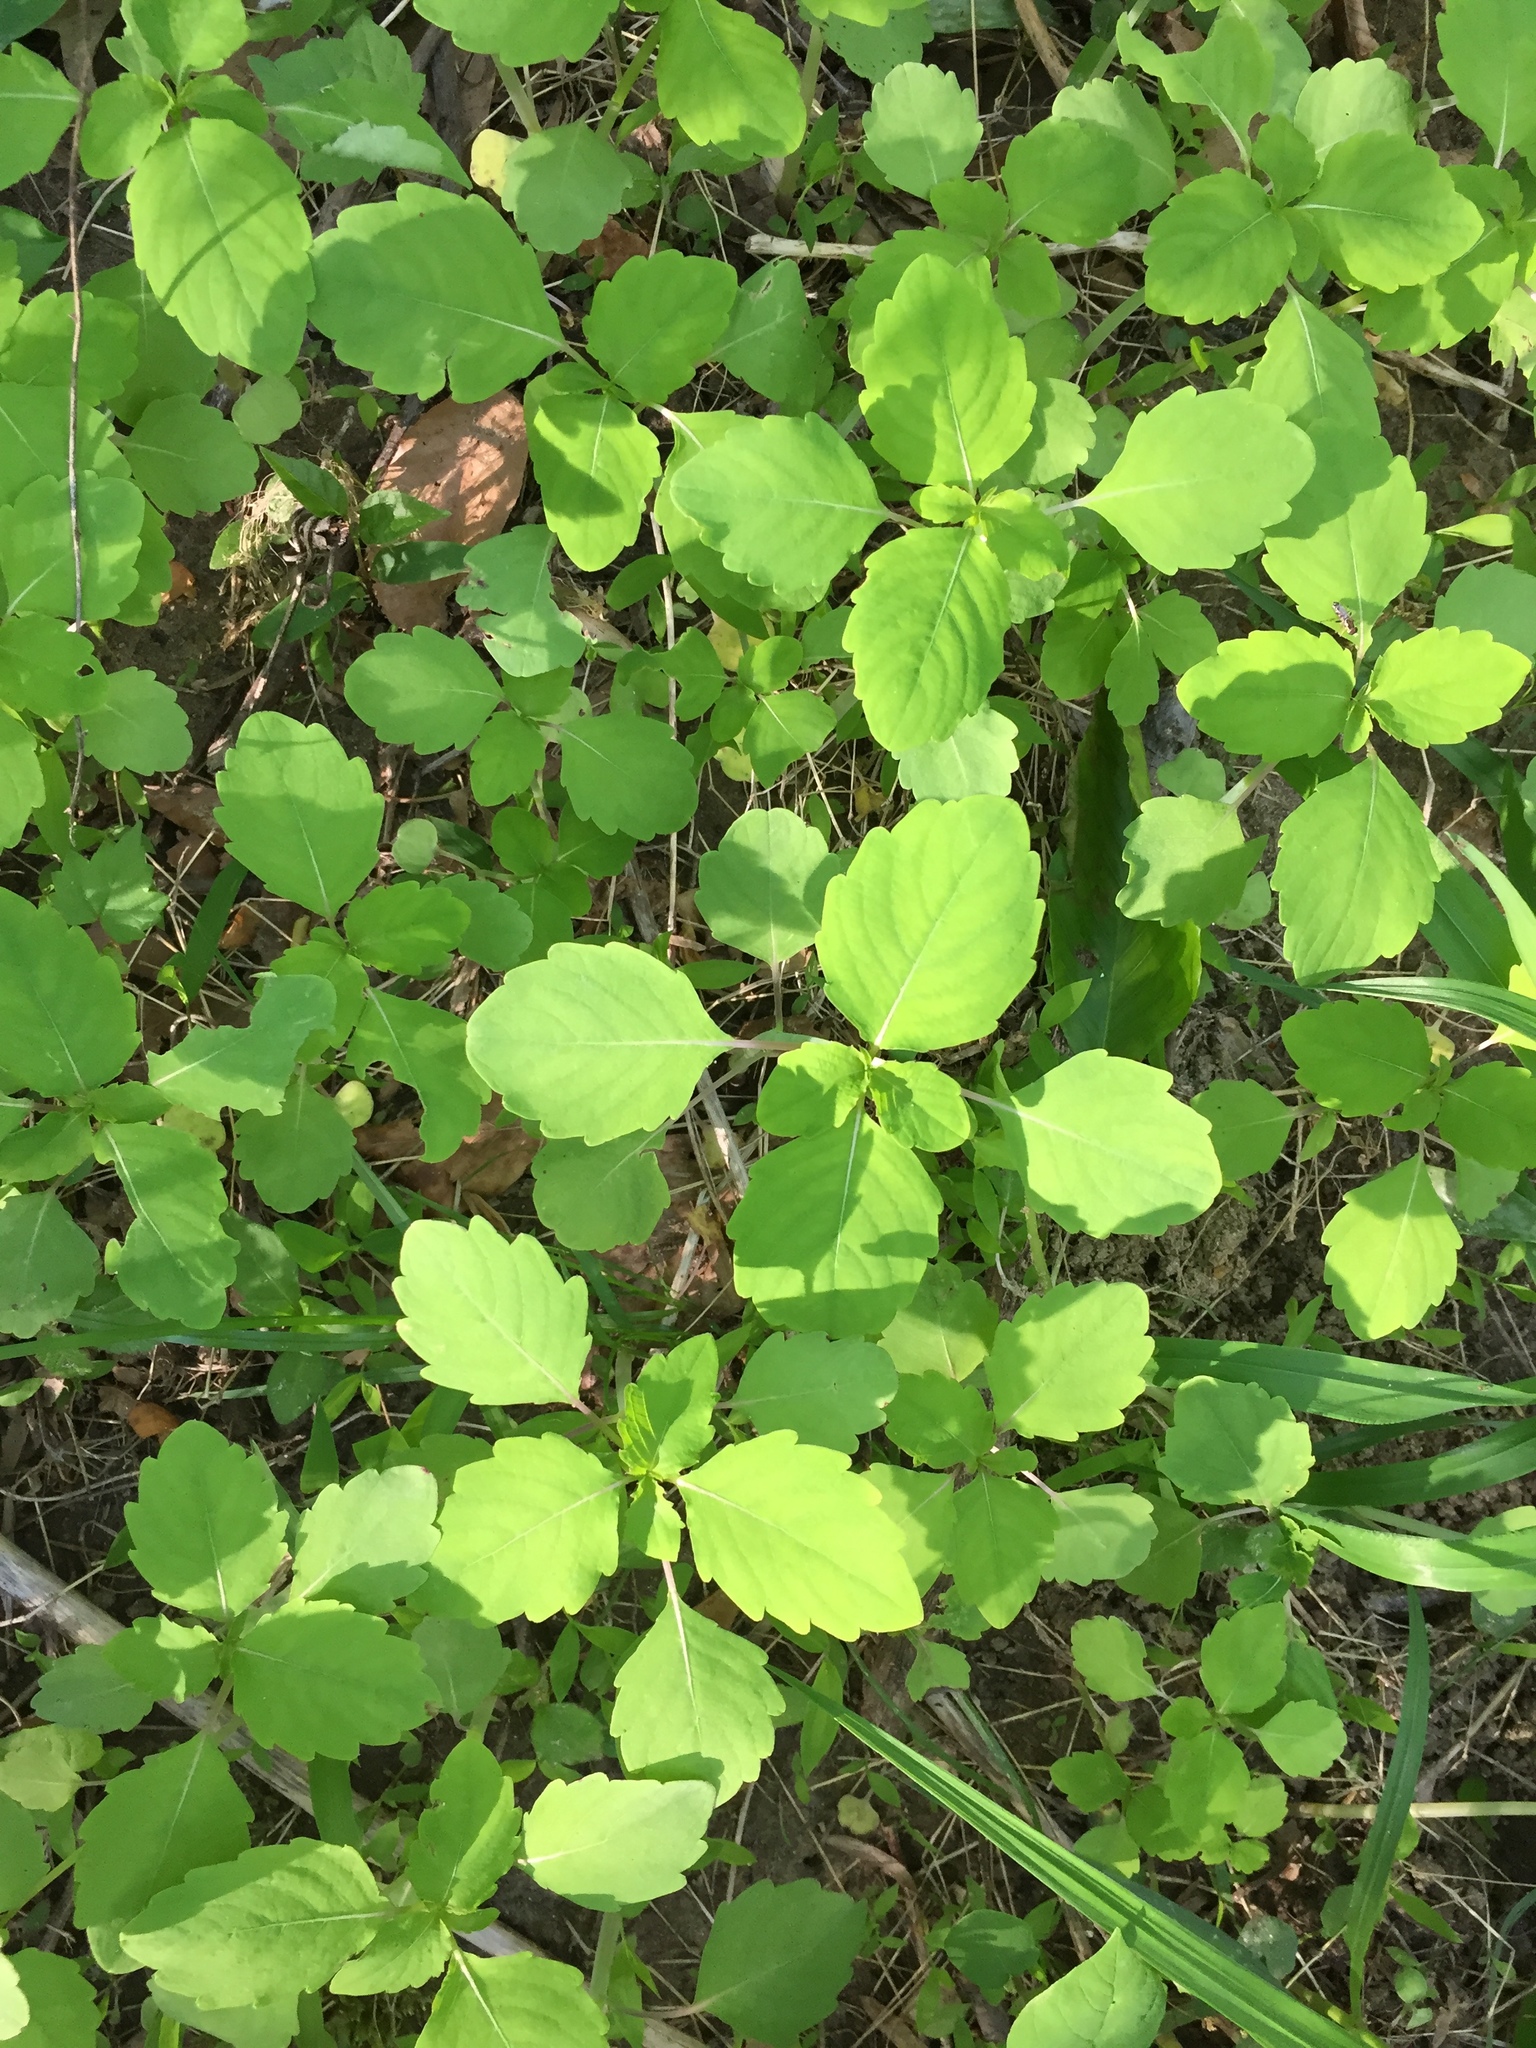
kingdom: Plantae
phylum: Tracheophyta
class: Magnoliopsida
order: Ericales
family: Balsaminaceae
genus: Impatiens
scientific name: Impatiens capensis
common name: Orange balsam
